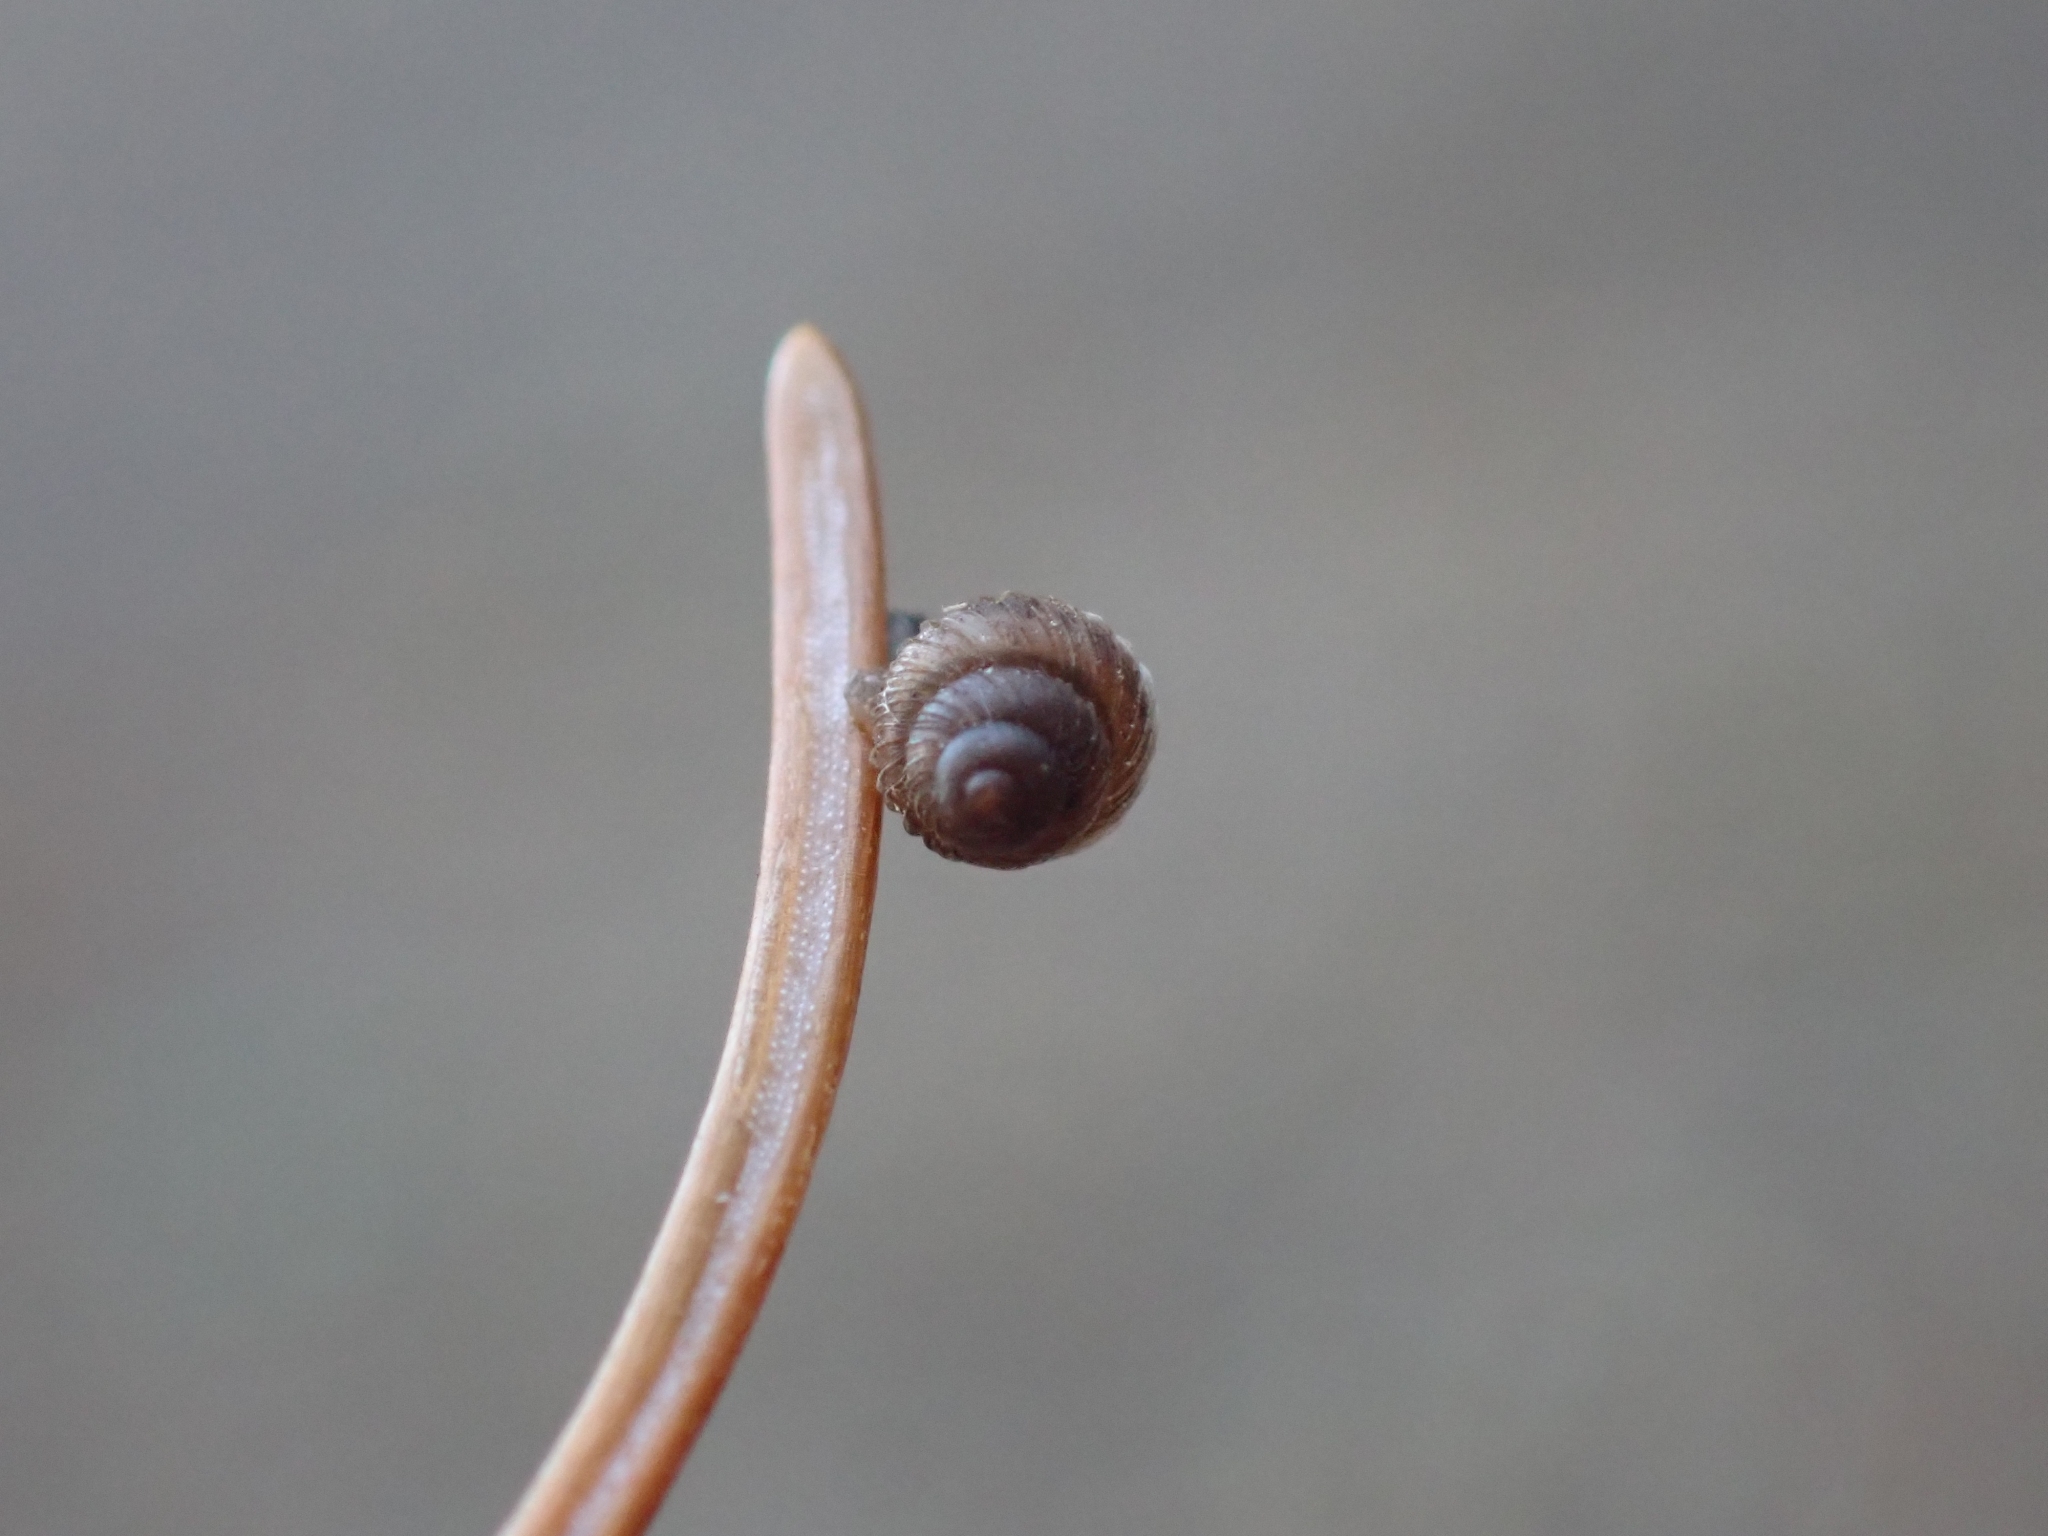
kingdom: Animalia
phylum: Mollusca
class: Gastropoda
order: Stylommatophora
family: Valloniidae
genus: Zoogenetes
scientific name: Zoogenetes harpa
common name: Boreal top
